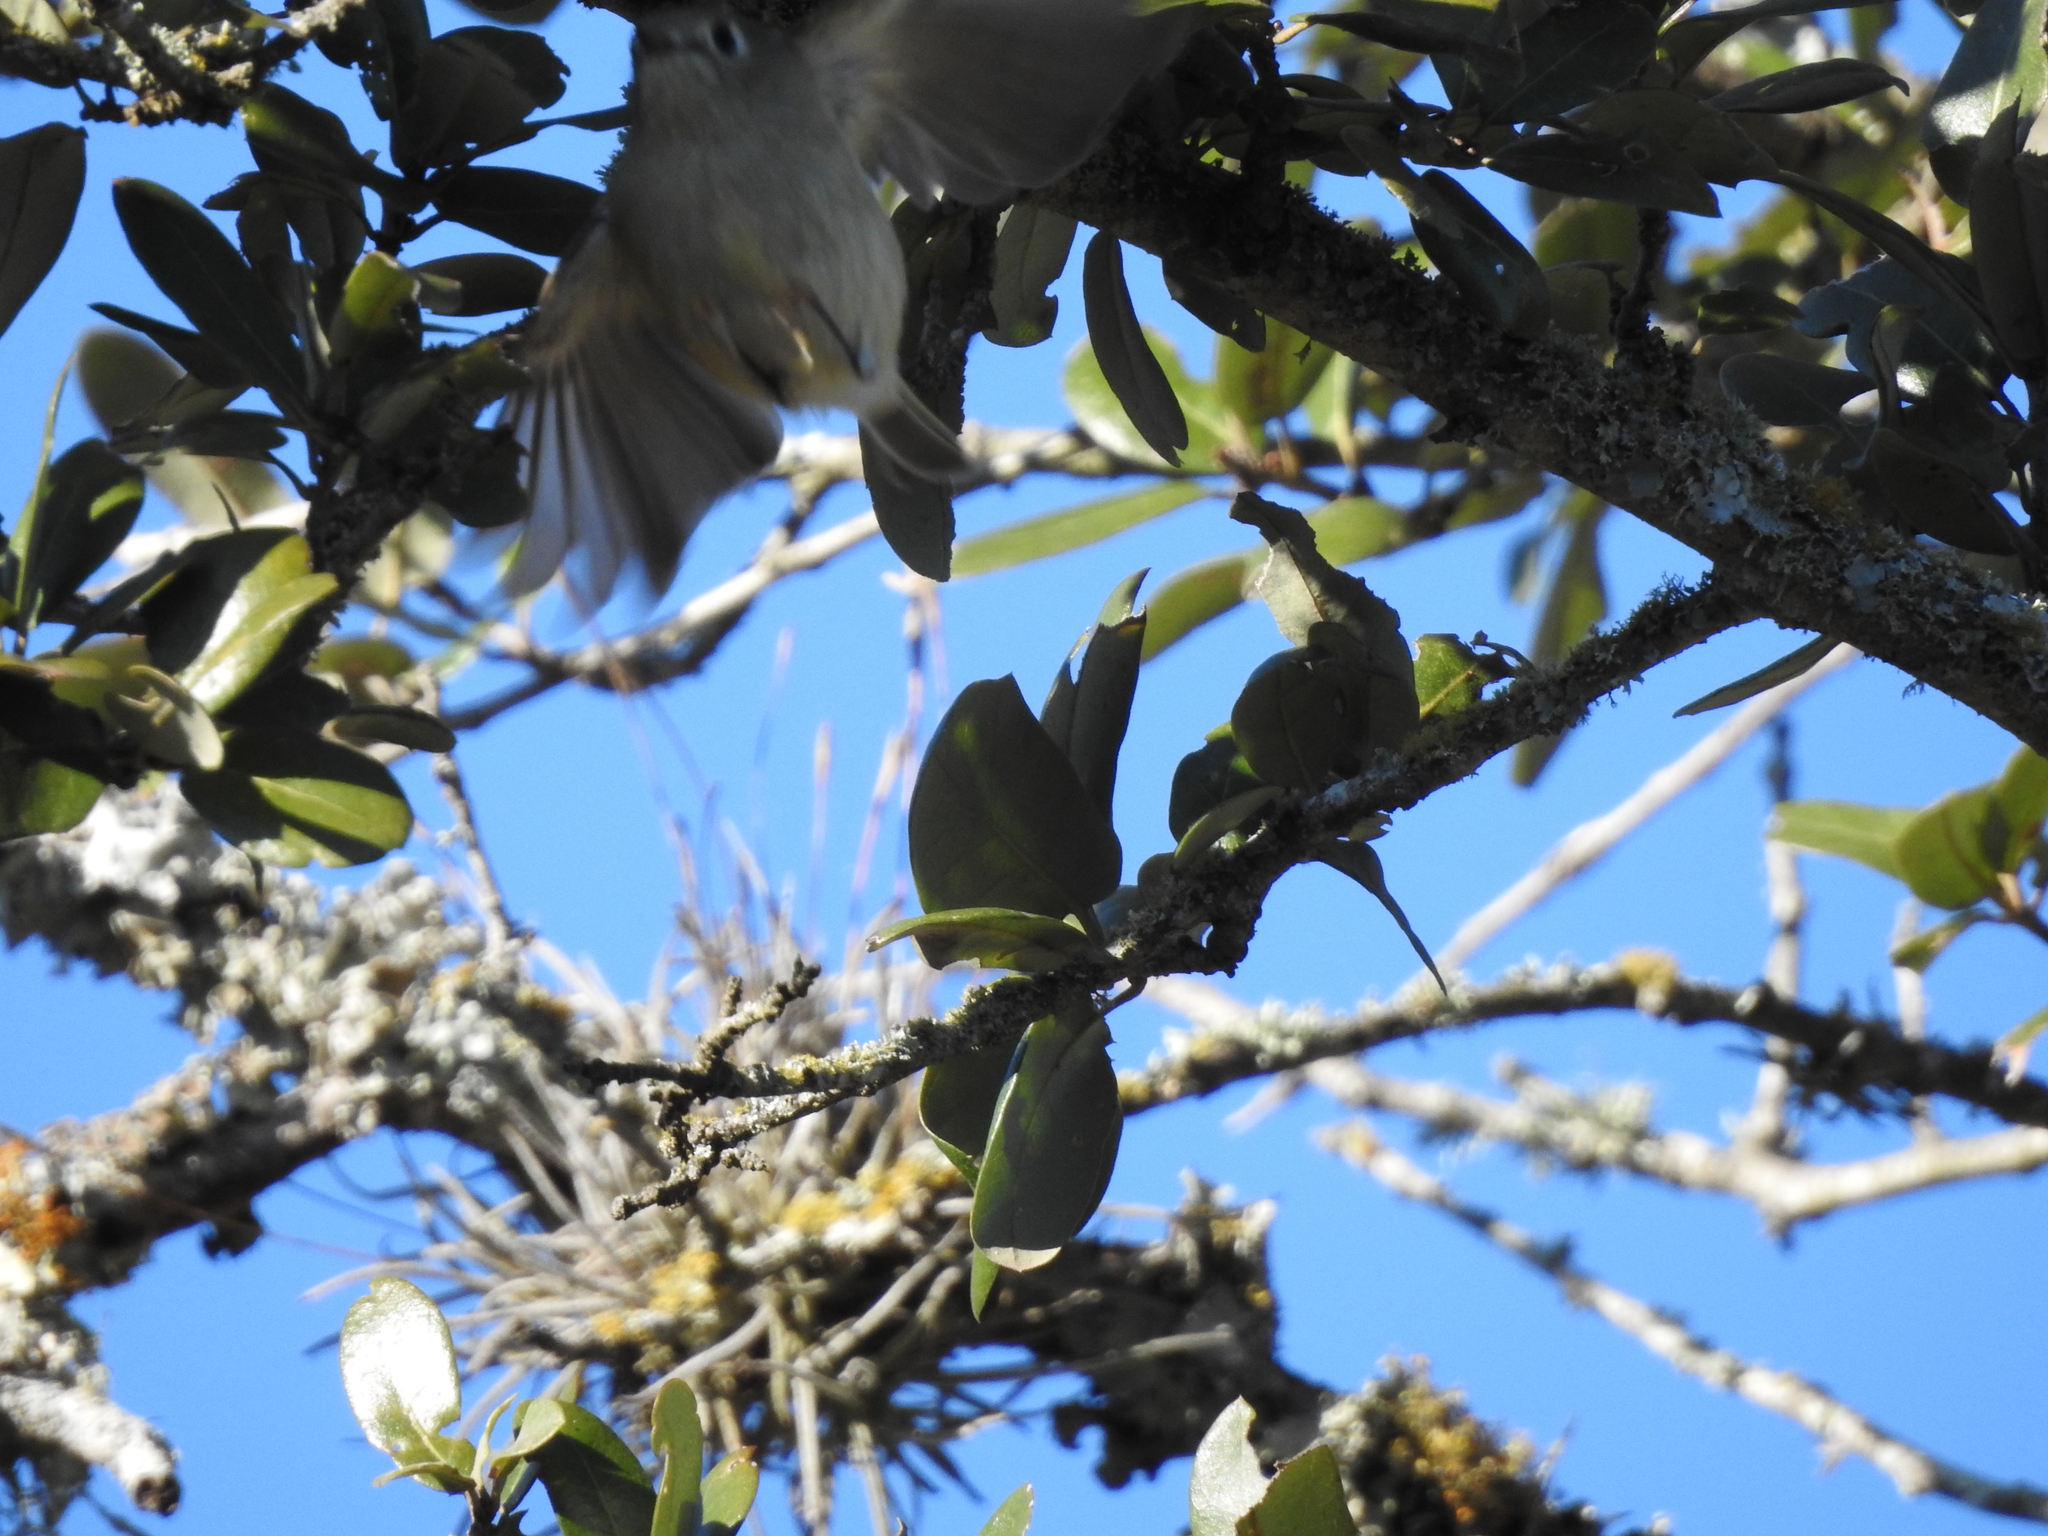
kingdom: Animalia
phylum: Chordata
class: Aves
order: Passeriformes
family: Regulidae
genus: Regulus
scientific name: Regulus calendula
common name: Ruby-crowned kinglet
